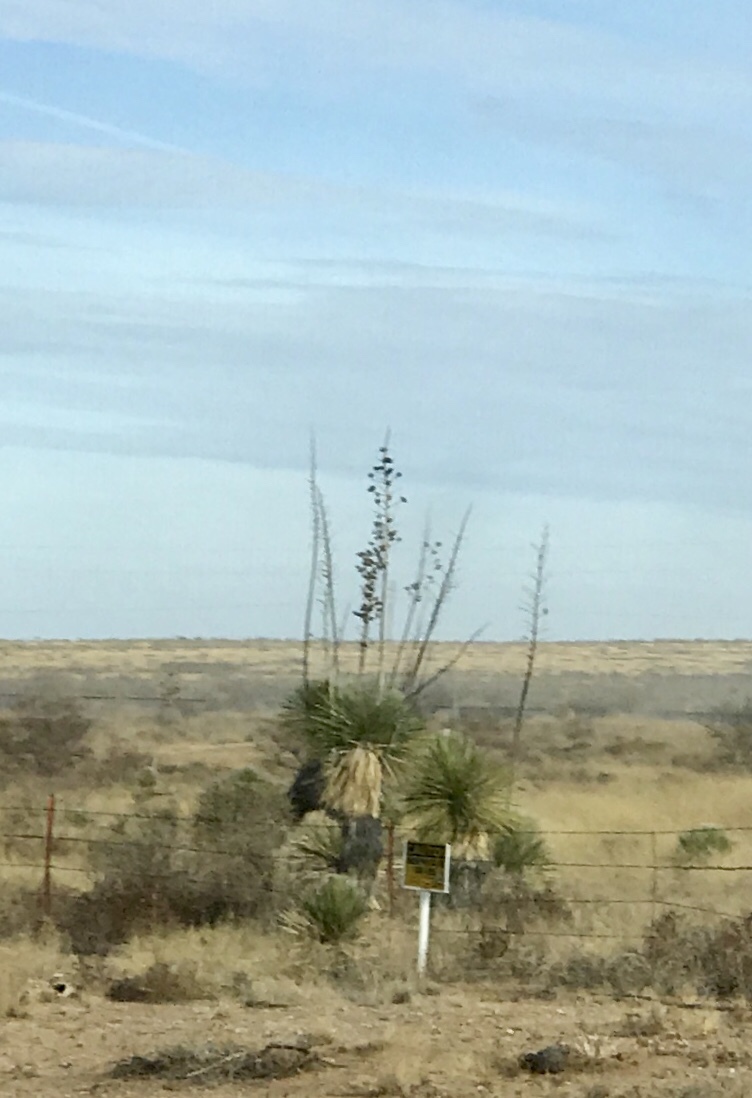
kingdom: Plantae
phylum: Tracheophyta
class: Liliopsida
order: Asparagales
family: Asparagaceae
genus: Yucca
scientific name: Yucca elata
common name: Palmella
